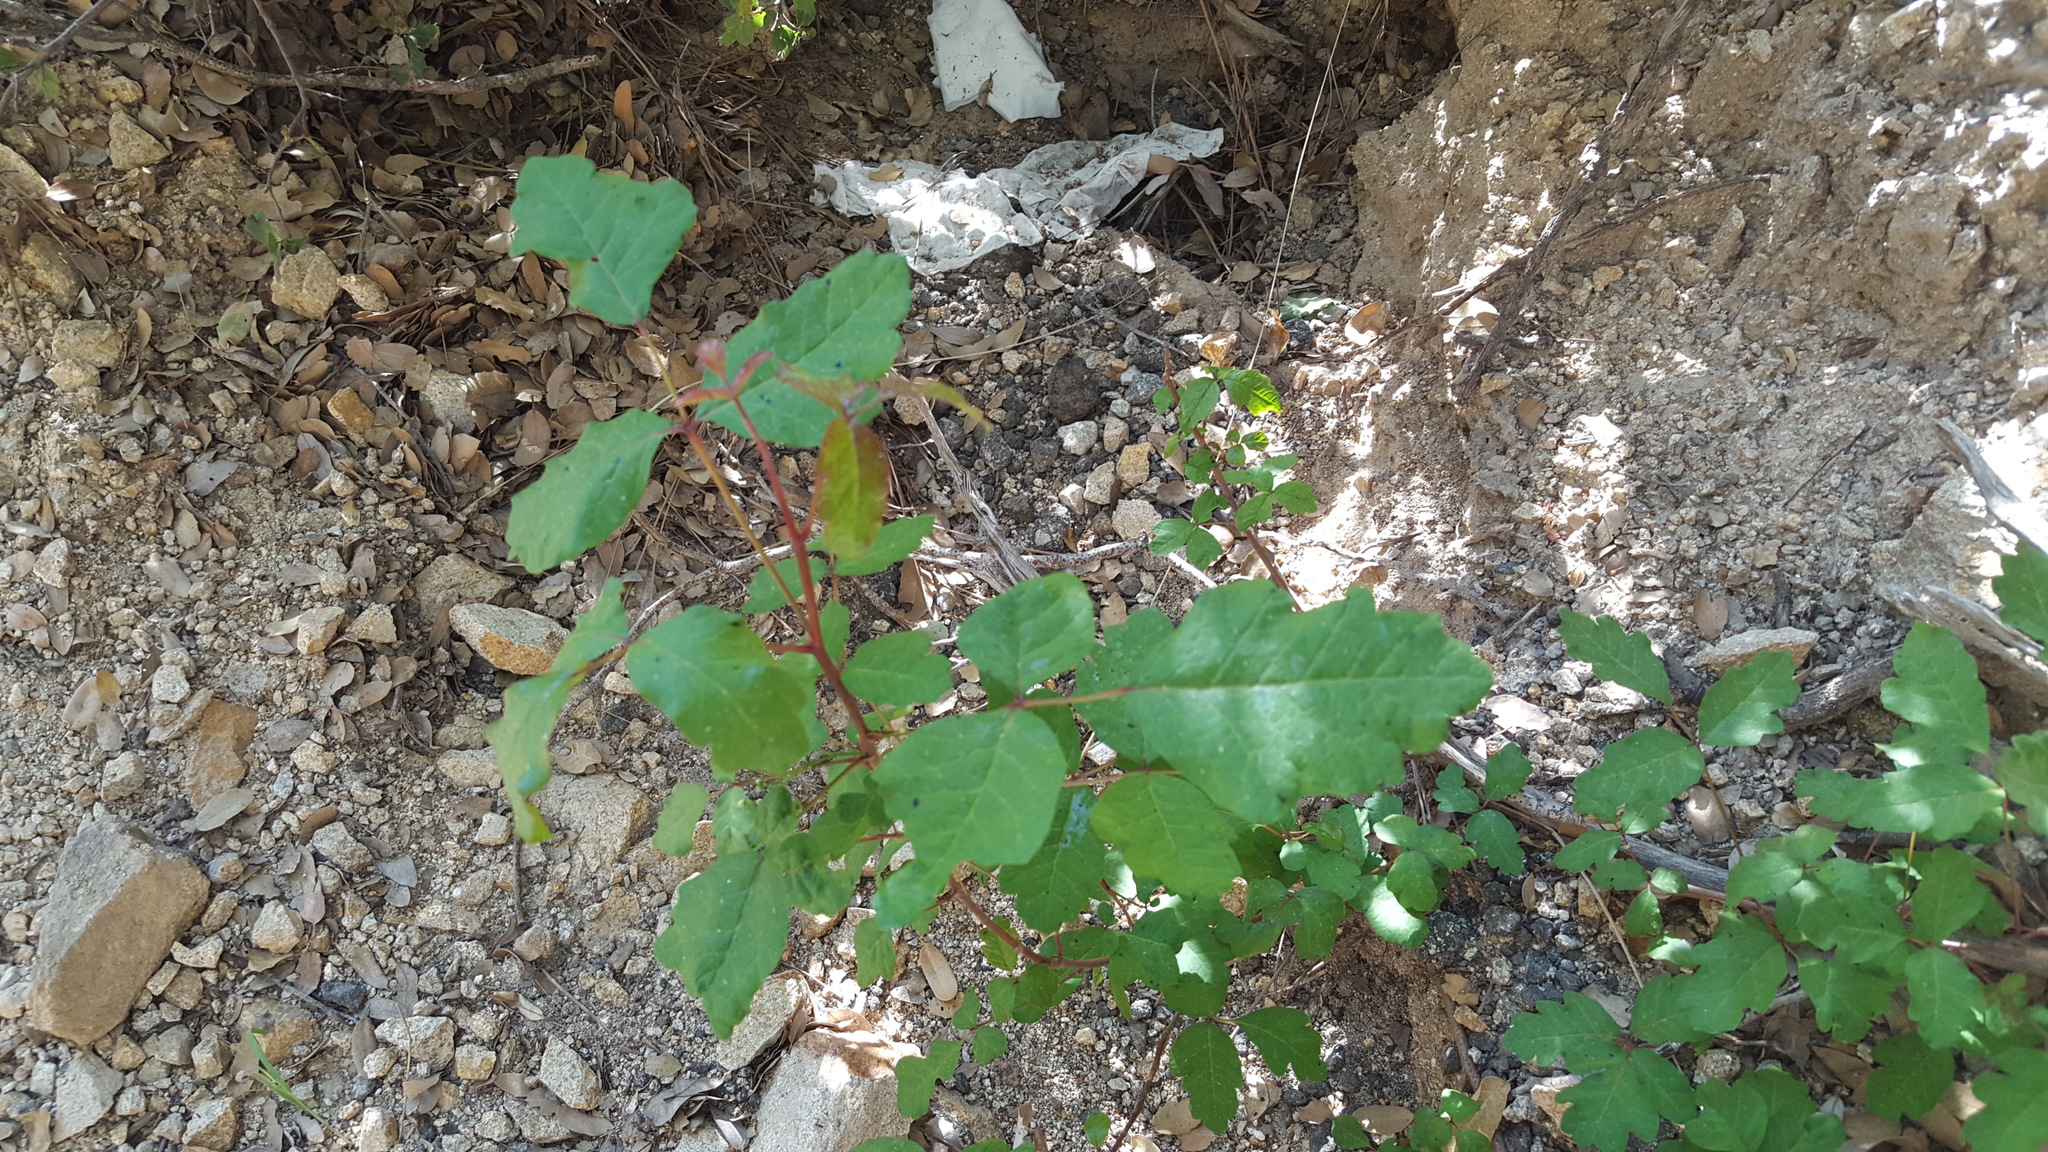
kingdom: Plantae
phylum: Tracheophyta
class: Magnoliopsida
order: Sapindales
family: Anacardiaceae
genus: Toxicodendron
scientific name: Toxicodendron diversilobum
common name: Pacific poison-oak
